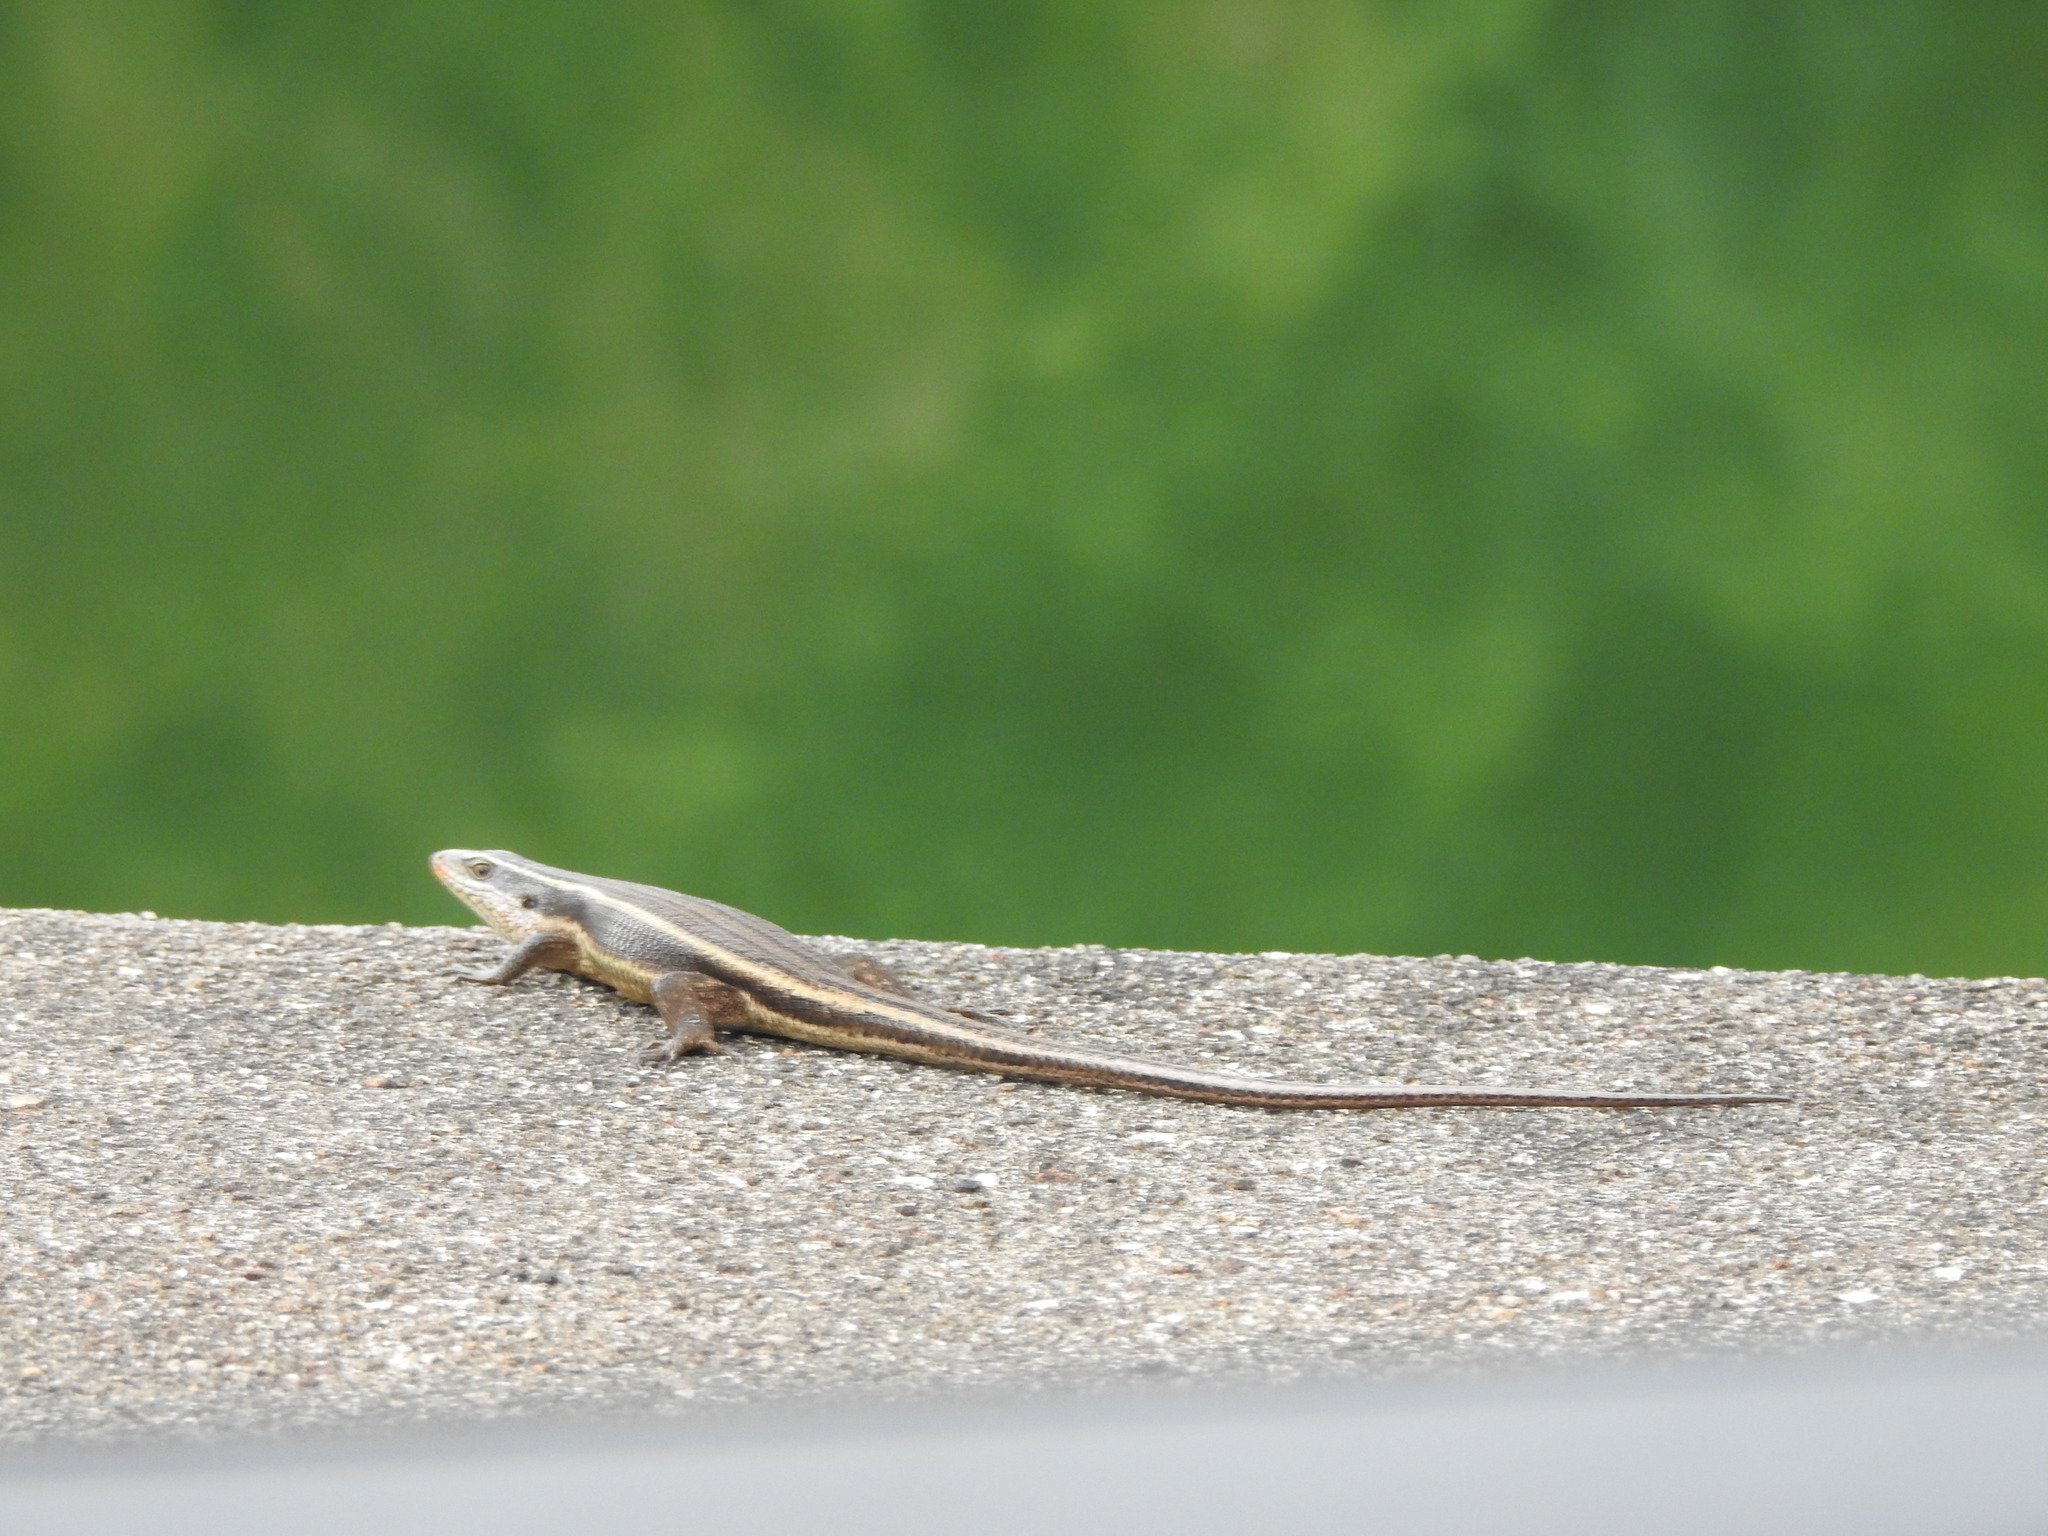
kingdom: Animalia
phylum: Chordata
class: Squamata
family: Scincidae
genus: Eutropis
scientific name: Eutropis carinata
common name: Keeled indian mabuya
